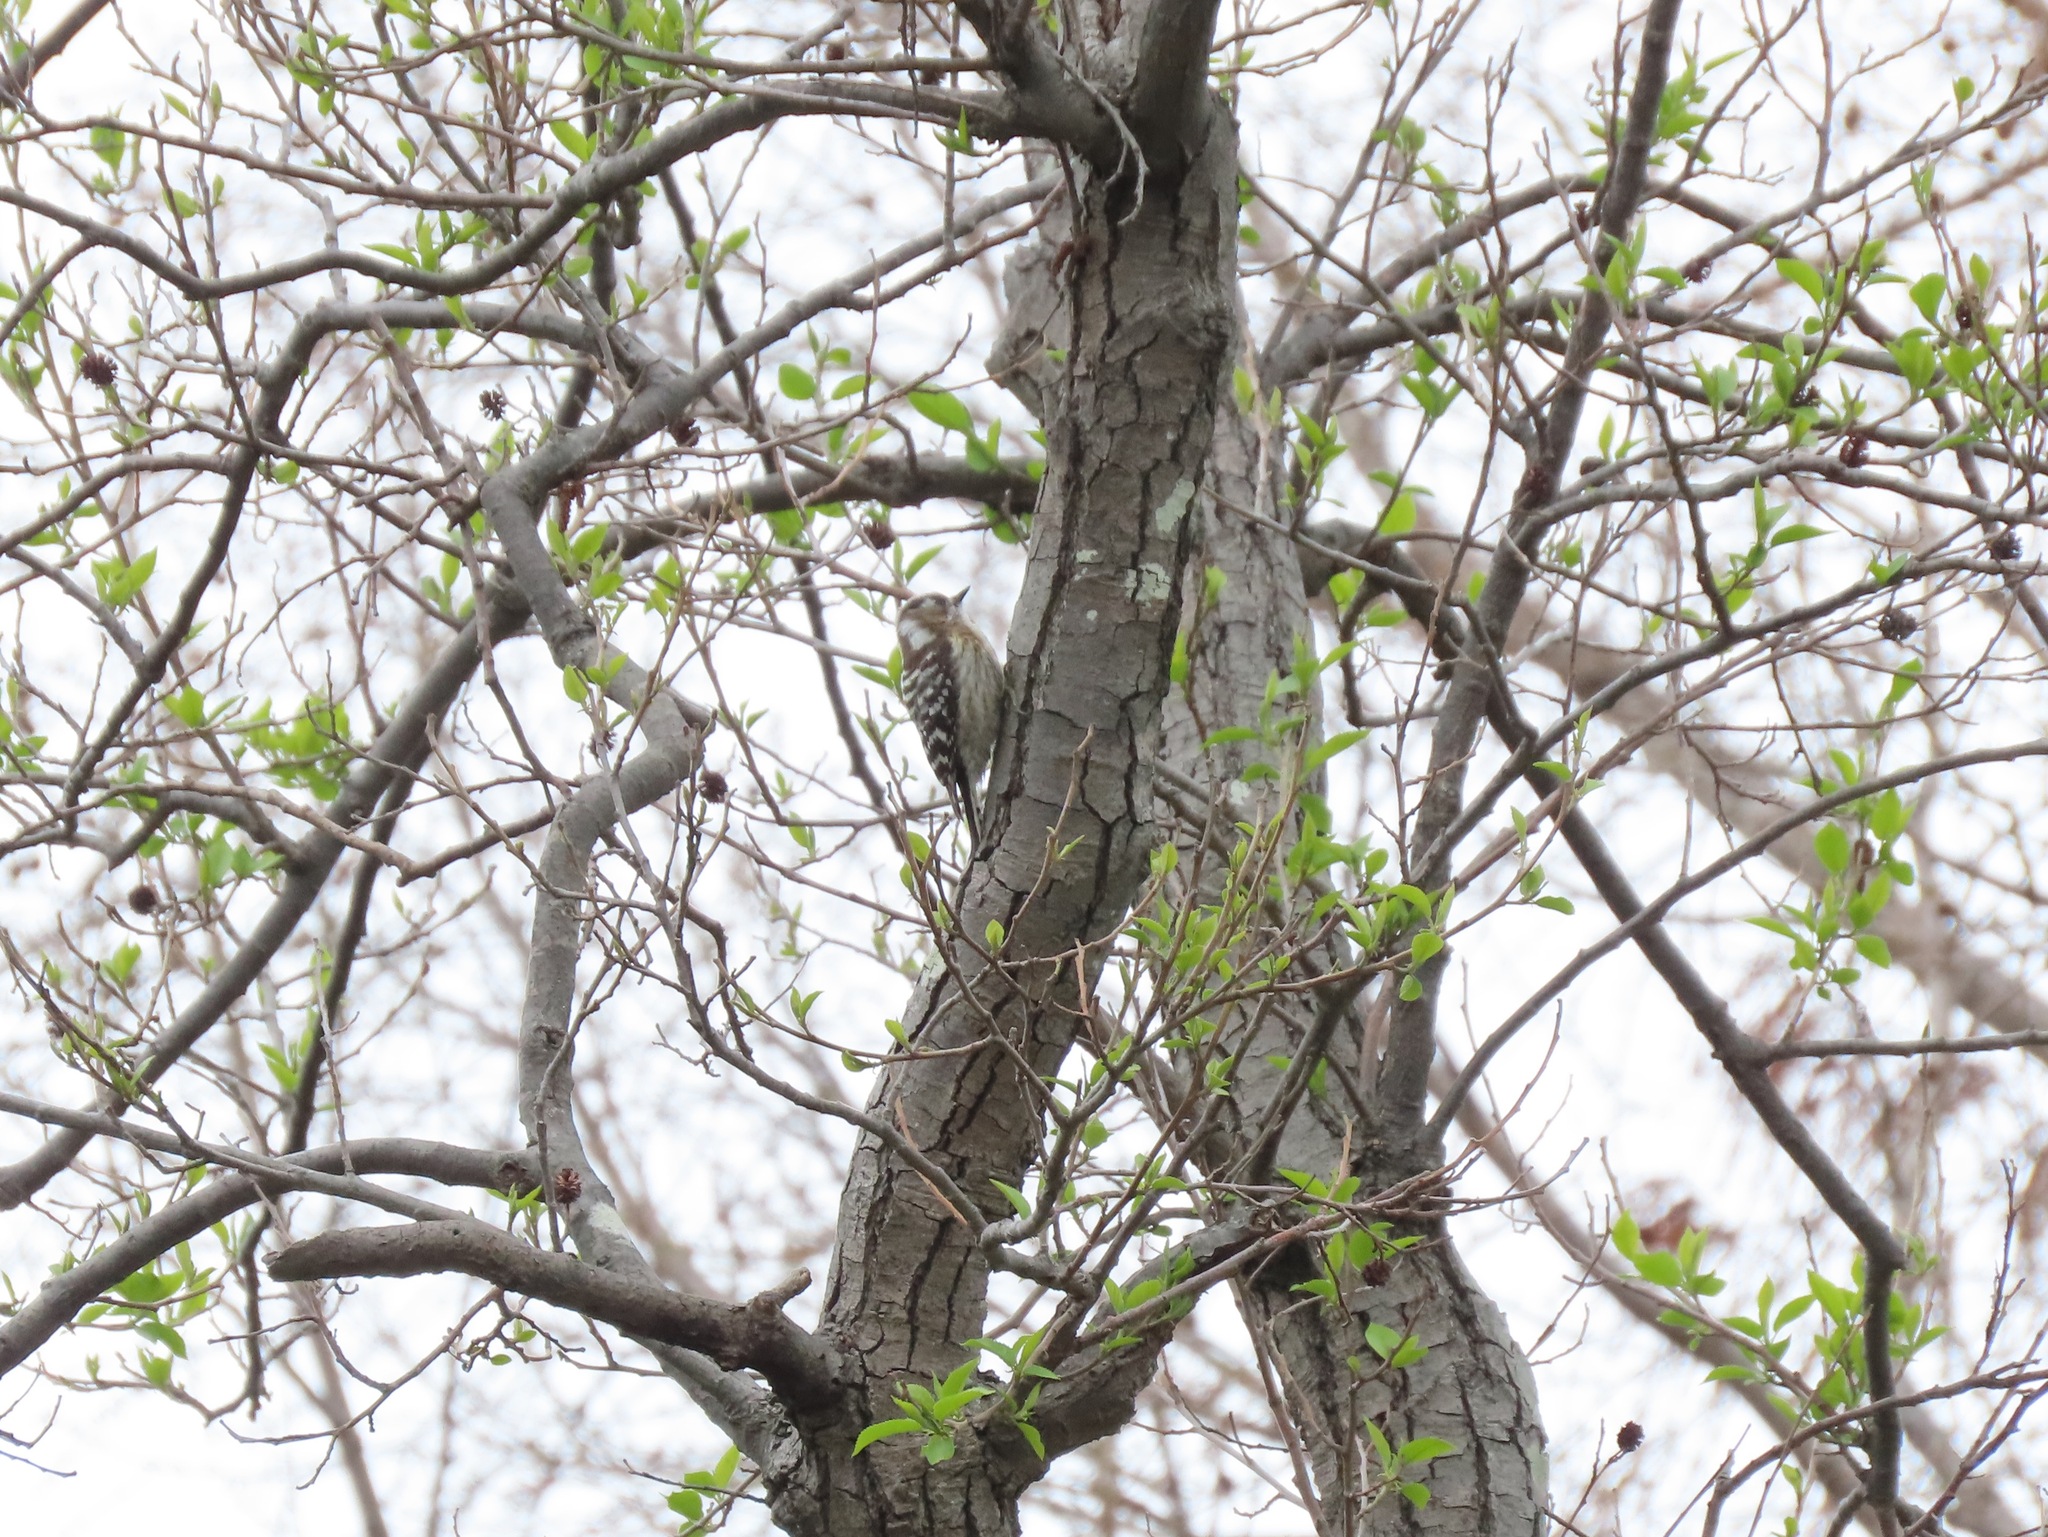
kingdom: Animalia
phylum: Chordata
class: Aves
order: Piciformes
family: Picidae
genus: Yungipicus
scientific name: Yungipicus kizuki
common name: Japanese pygmy woodpecker
